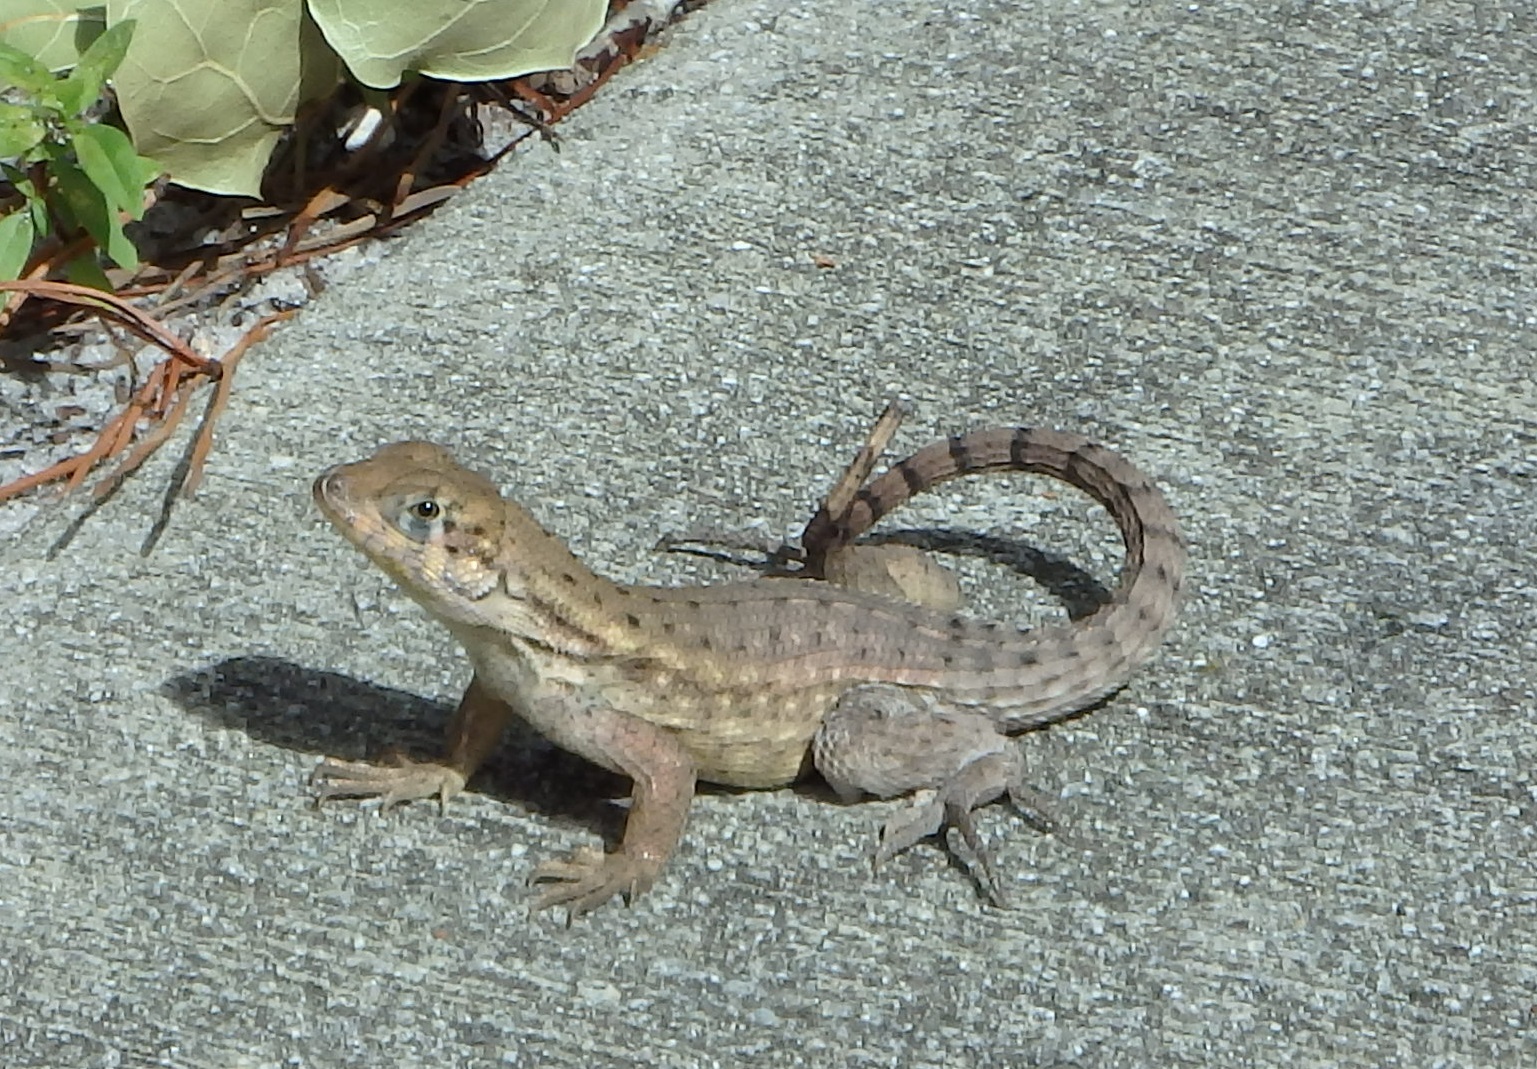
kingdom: Animalia
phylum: Chordata
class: Squamata
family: Leiocephalidae
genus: Leiocephalus
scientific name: Leiocephalus carinatus
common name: Northern curly-tailed lizard
